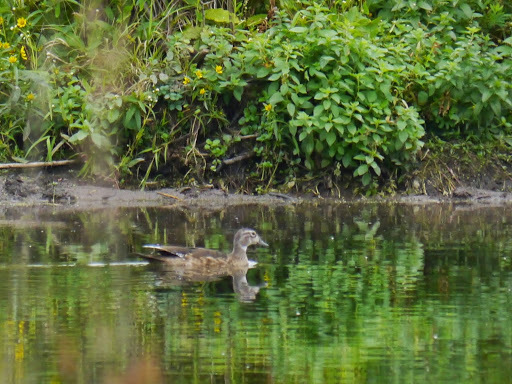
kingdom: Animalia
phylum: Chordata
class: Aves
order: Anseriformes
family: Anatidae
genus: Aix
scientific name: Aix sponsa
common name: Wood duck
